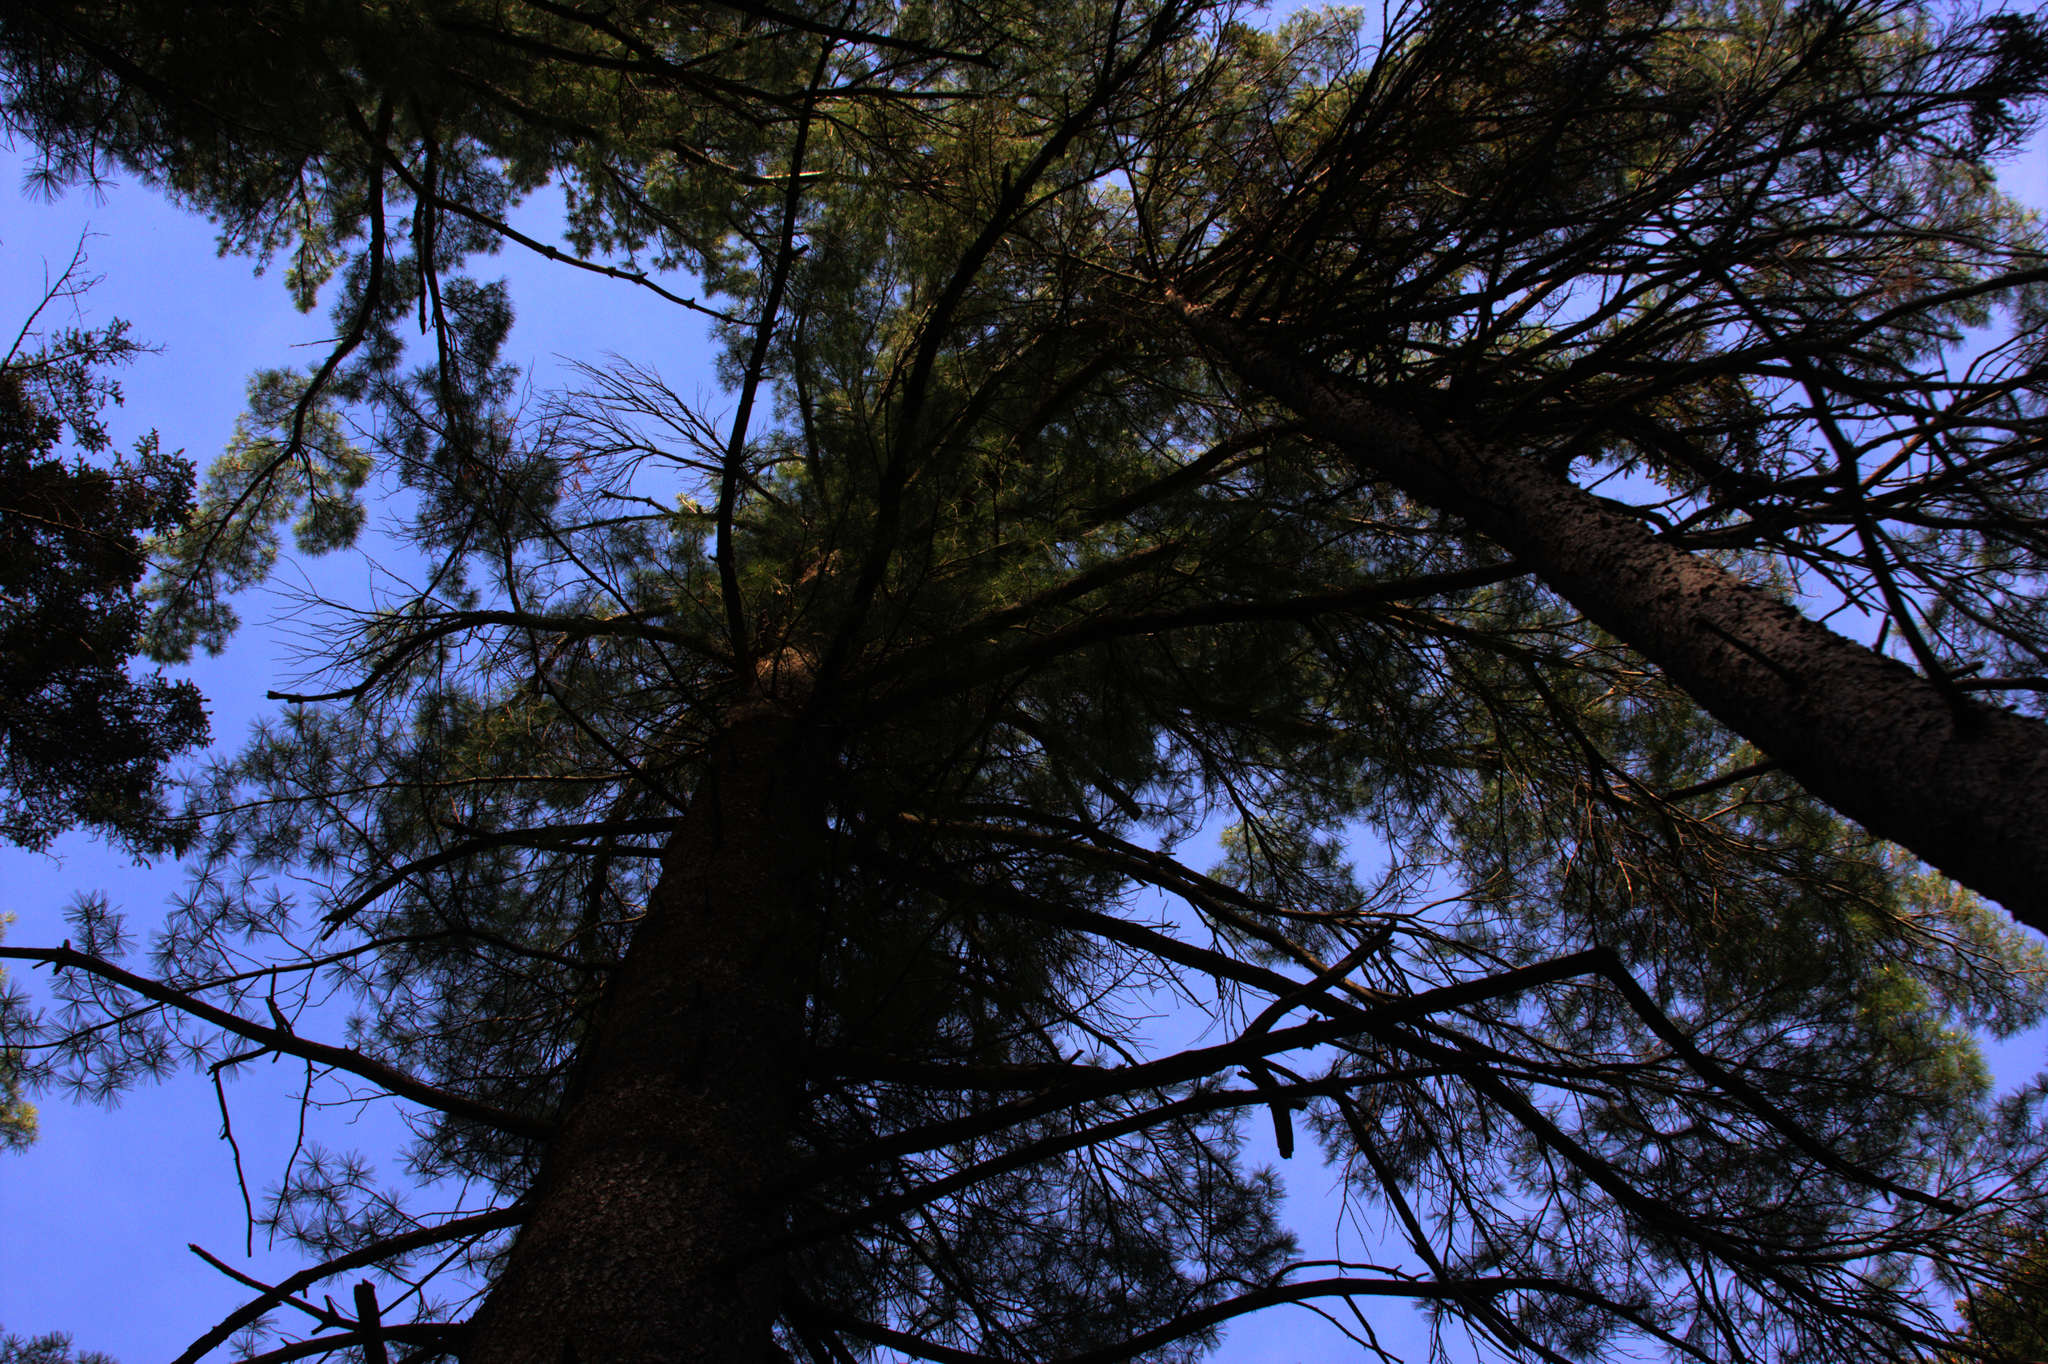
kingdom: Plantae
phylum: Tracheophyta
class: Pinopsida
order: Pinales
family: Pinaceae
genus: Pinus
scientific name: Pinus strobus
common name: Weymouth pine
